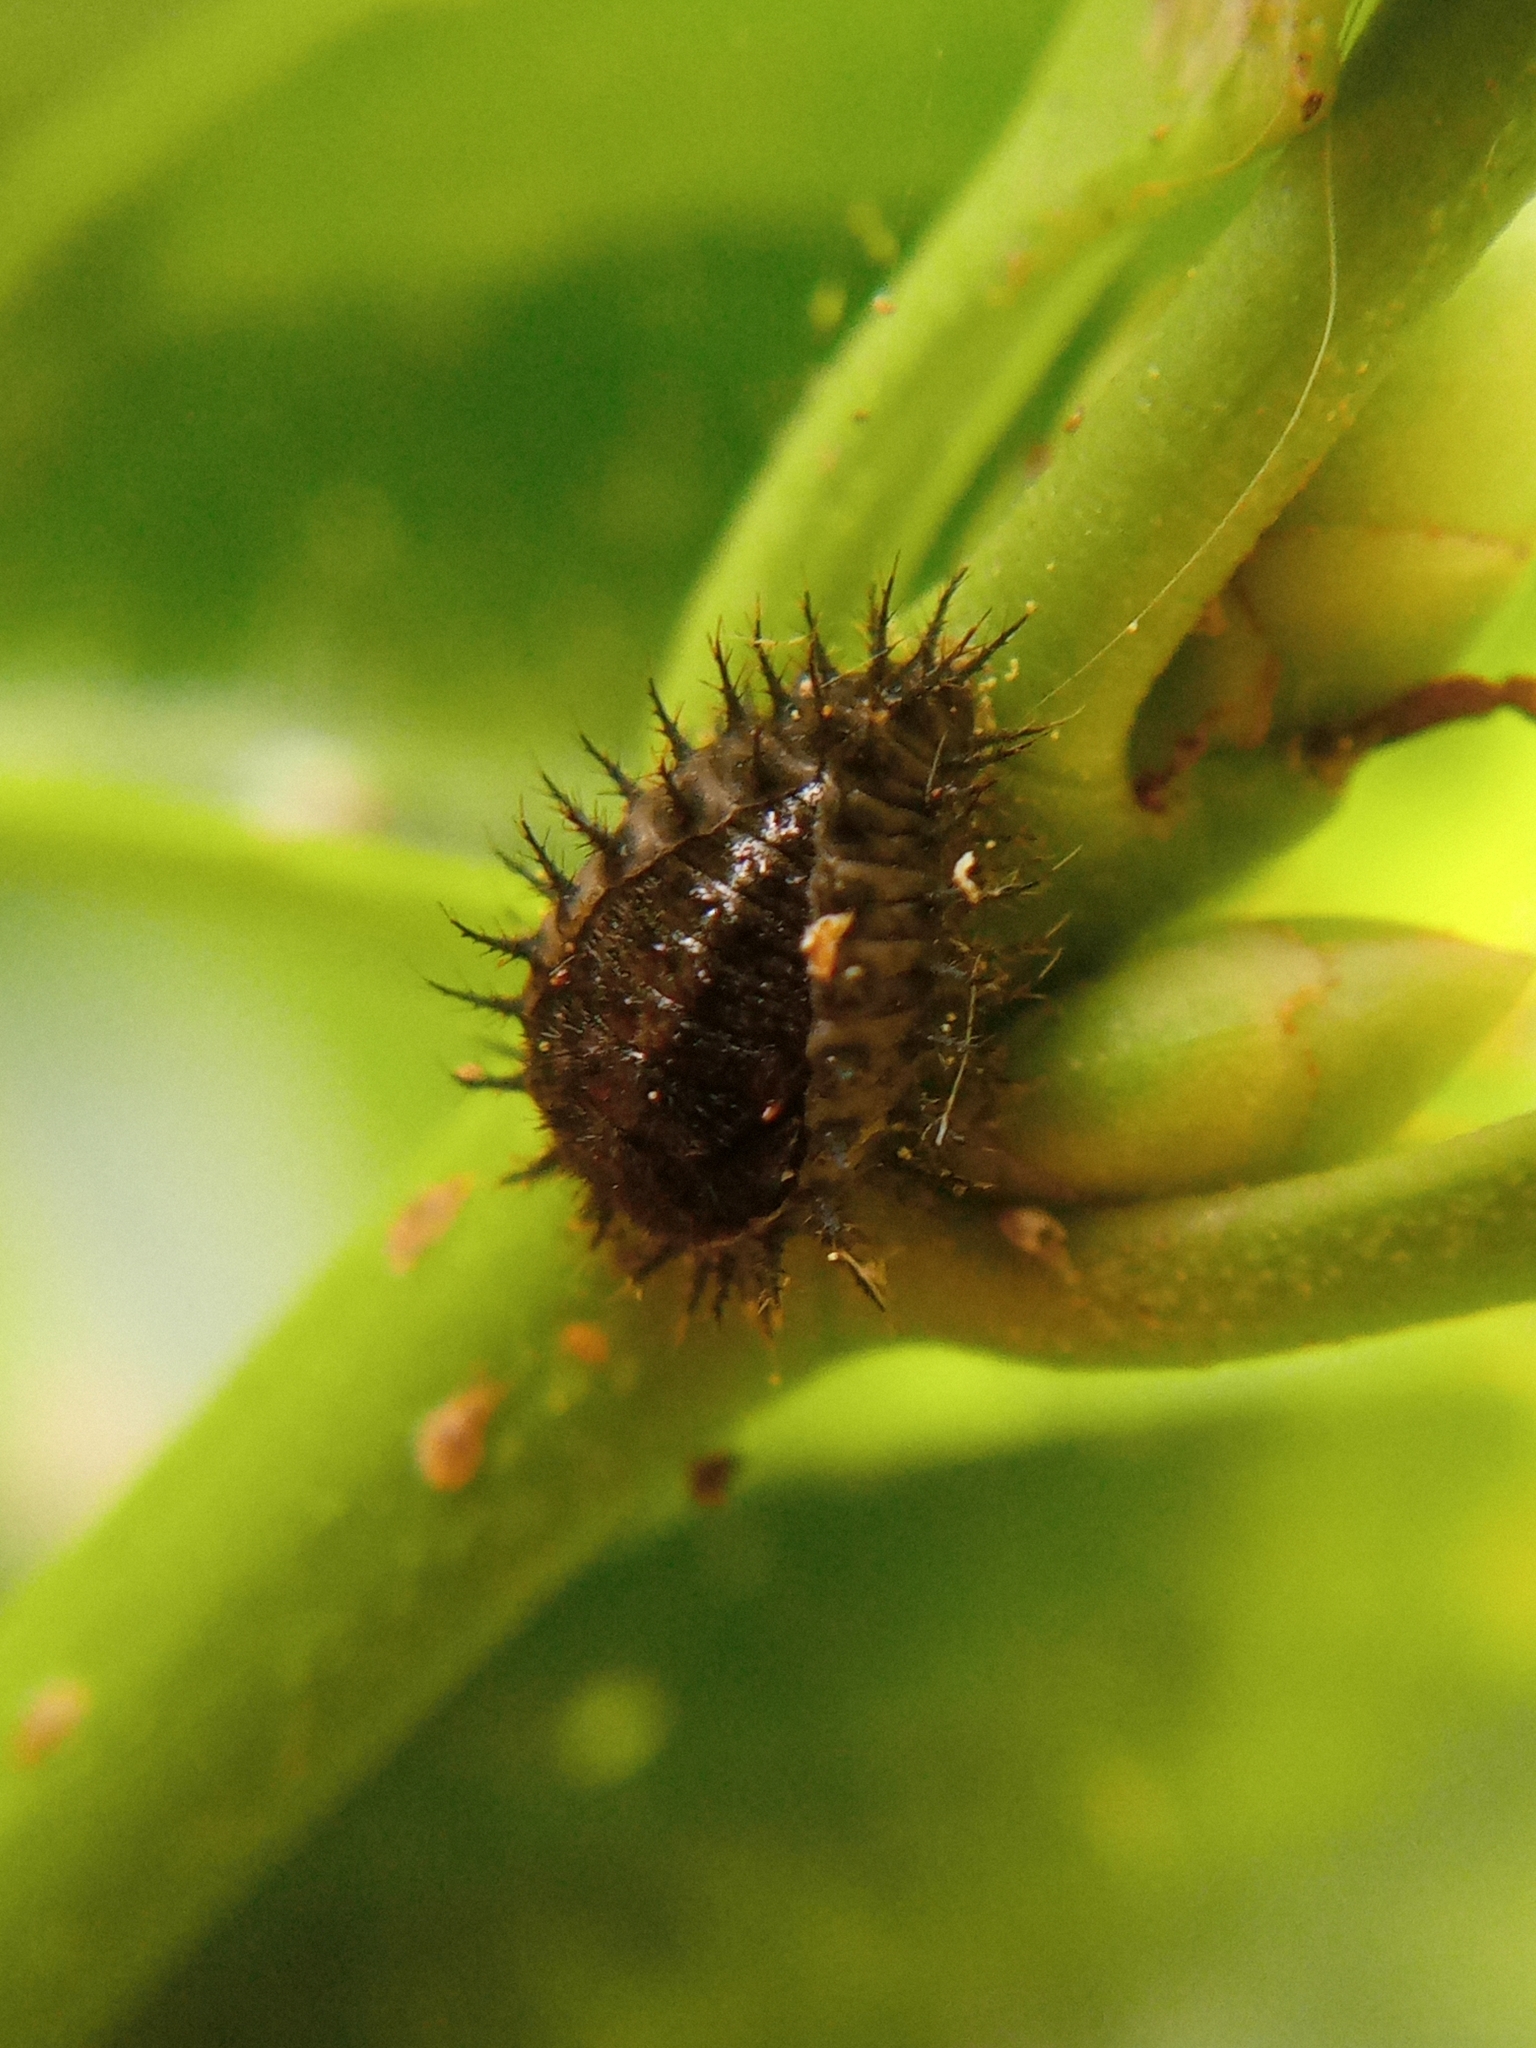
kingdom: Animalia
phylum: Arthropoda
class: Insecta
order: Coleoptera
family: Coccinellidae
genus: Chilocorus
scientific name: Chilocorus renipustulatus
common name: Kidney-spot ladybird
